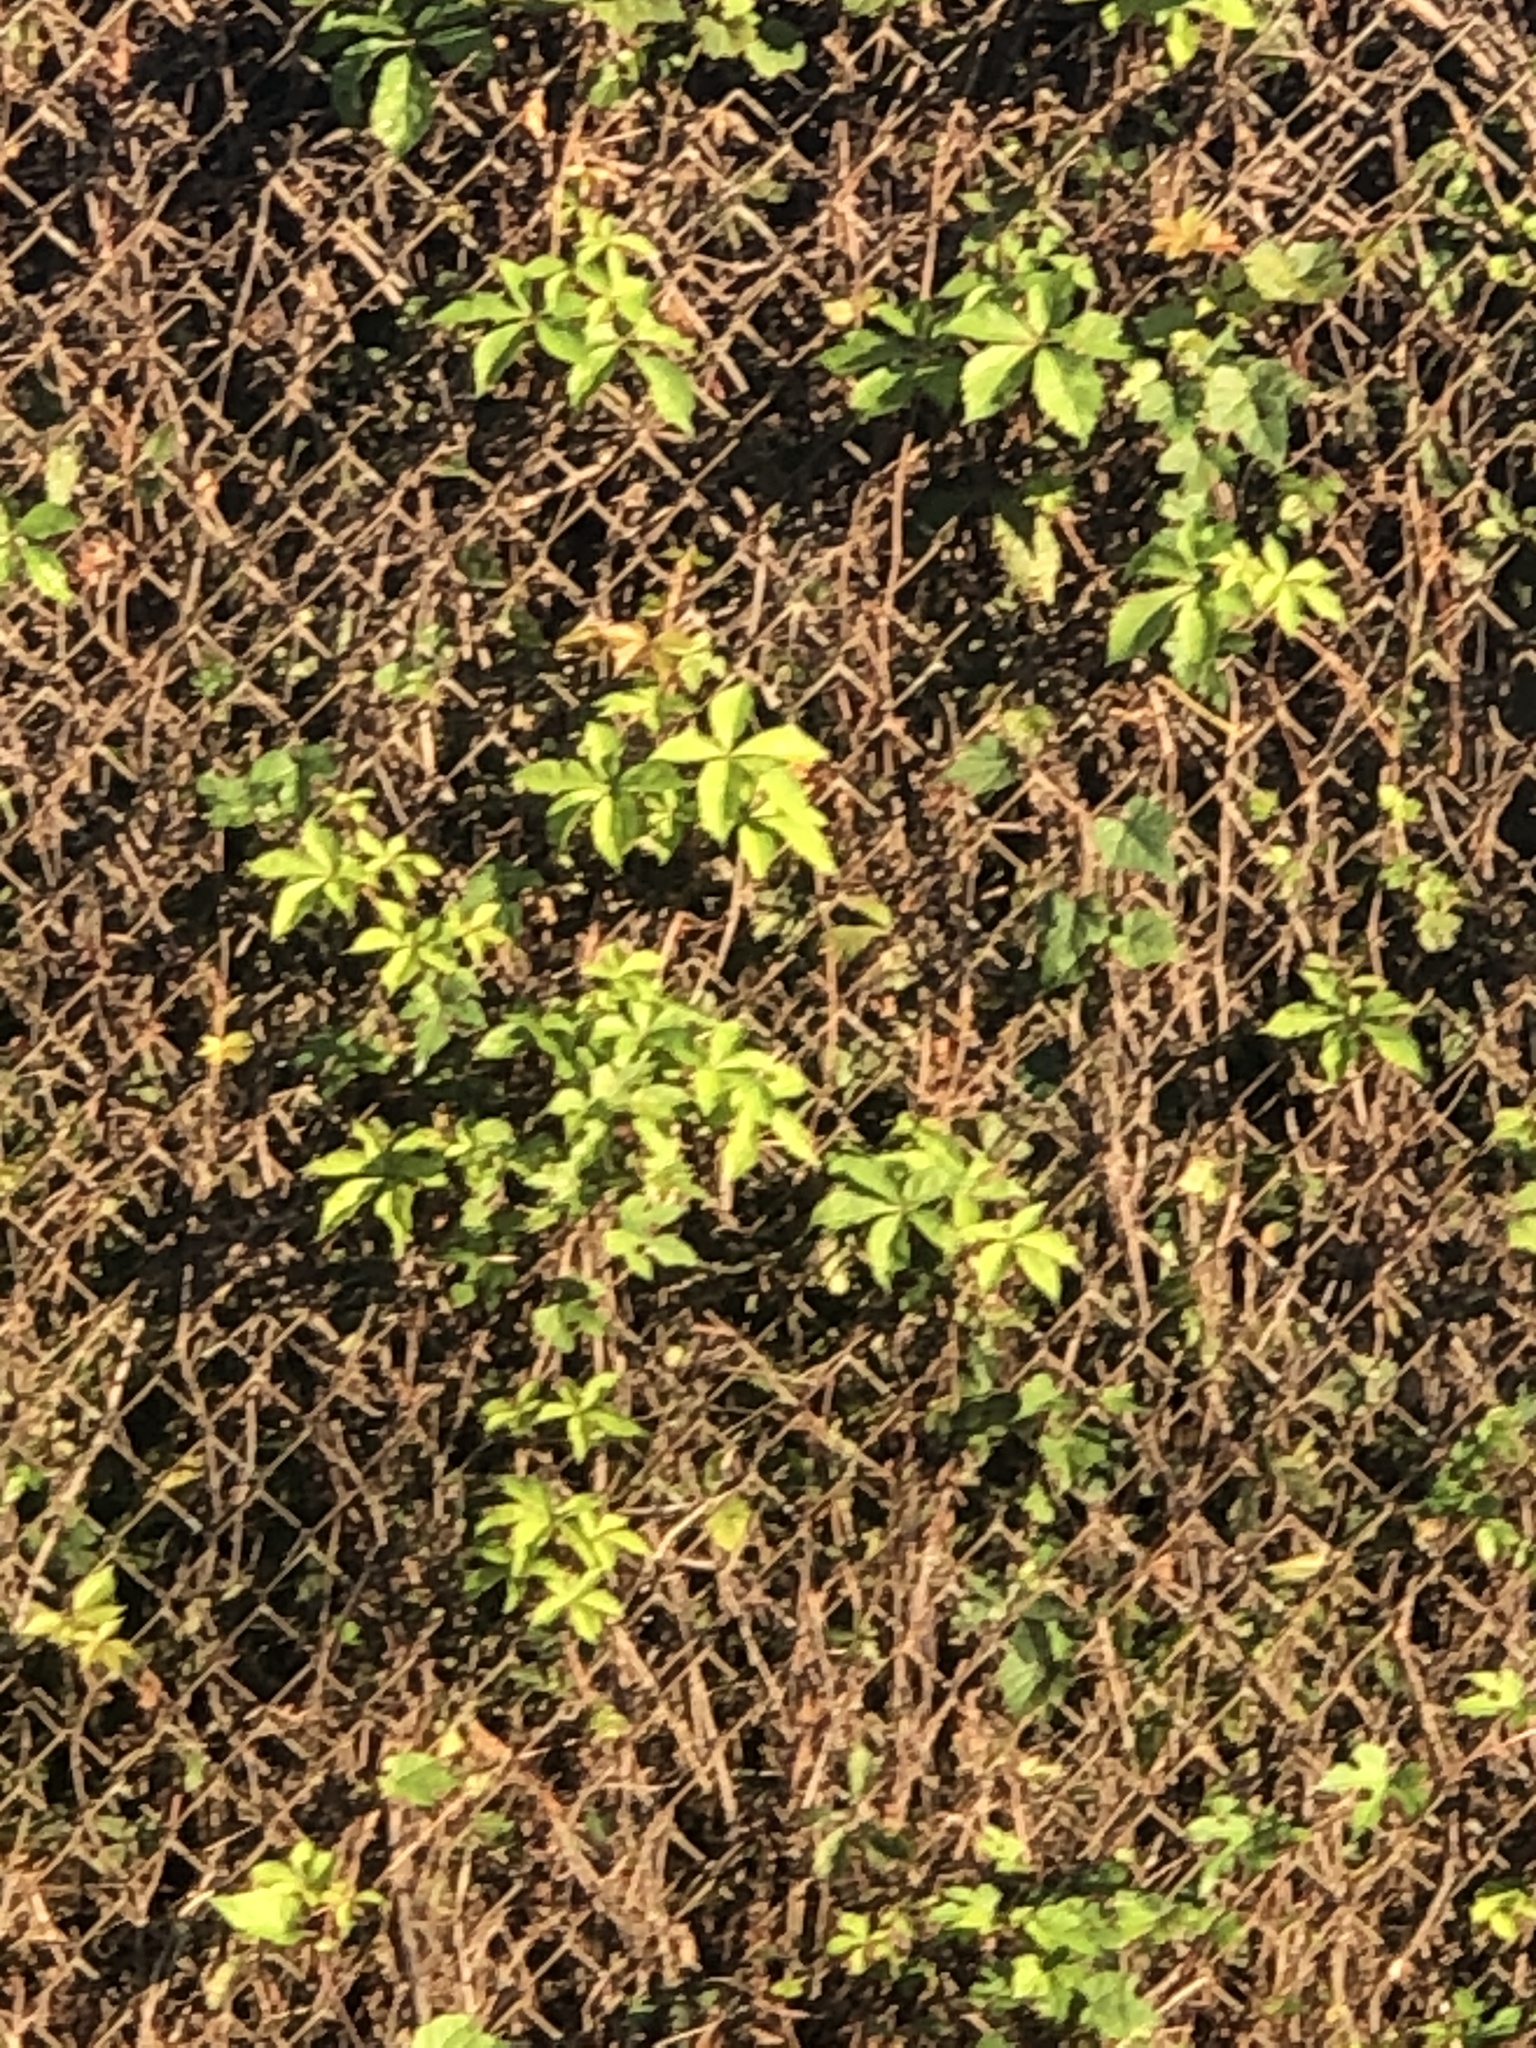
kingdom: Plantae
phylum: Tracheophyta
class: Magnoliopsida
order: Vitales
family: Vitaceae
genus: Parthenocissus
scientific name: Parthenocissus quinquefolia
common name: Virginia-creeper
